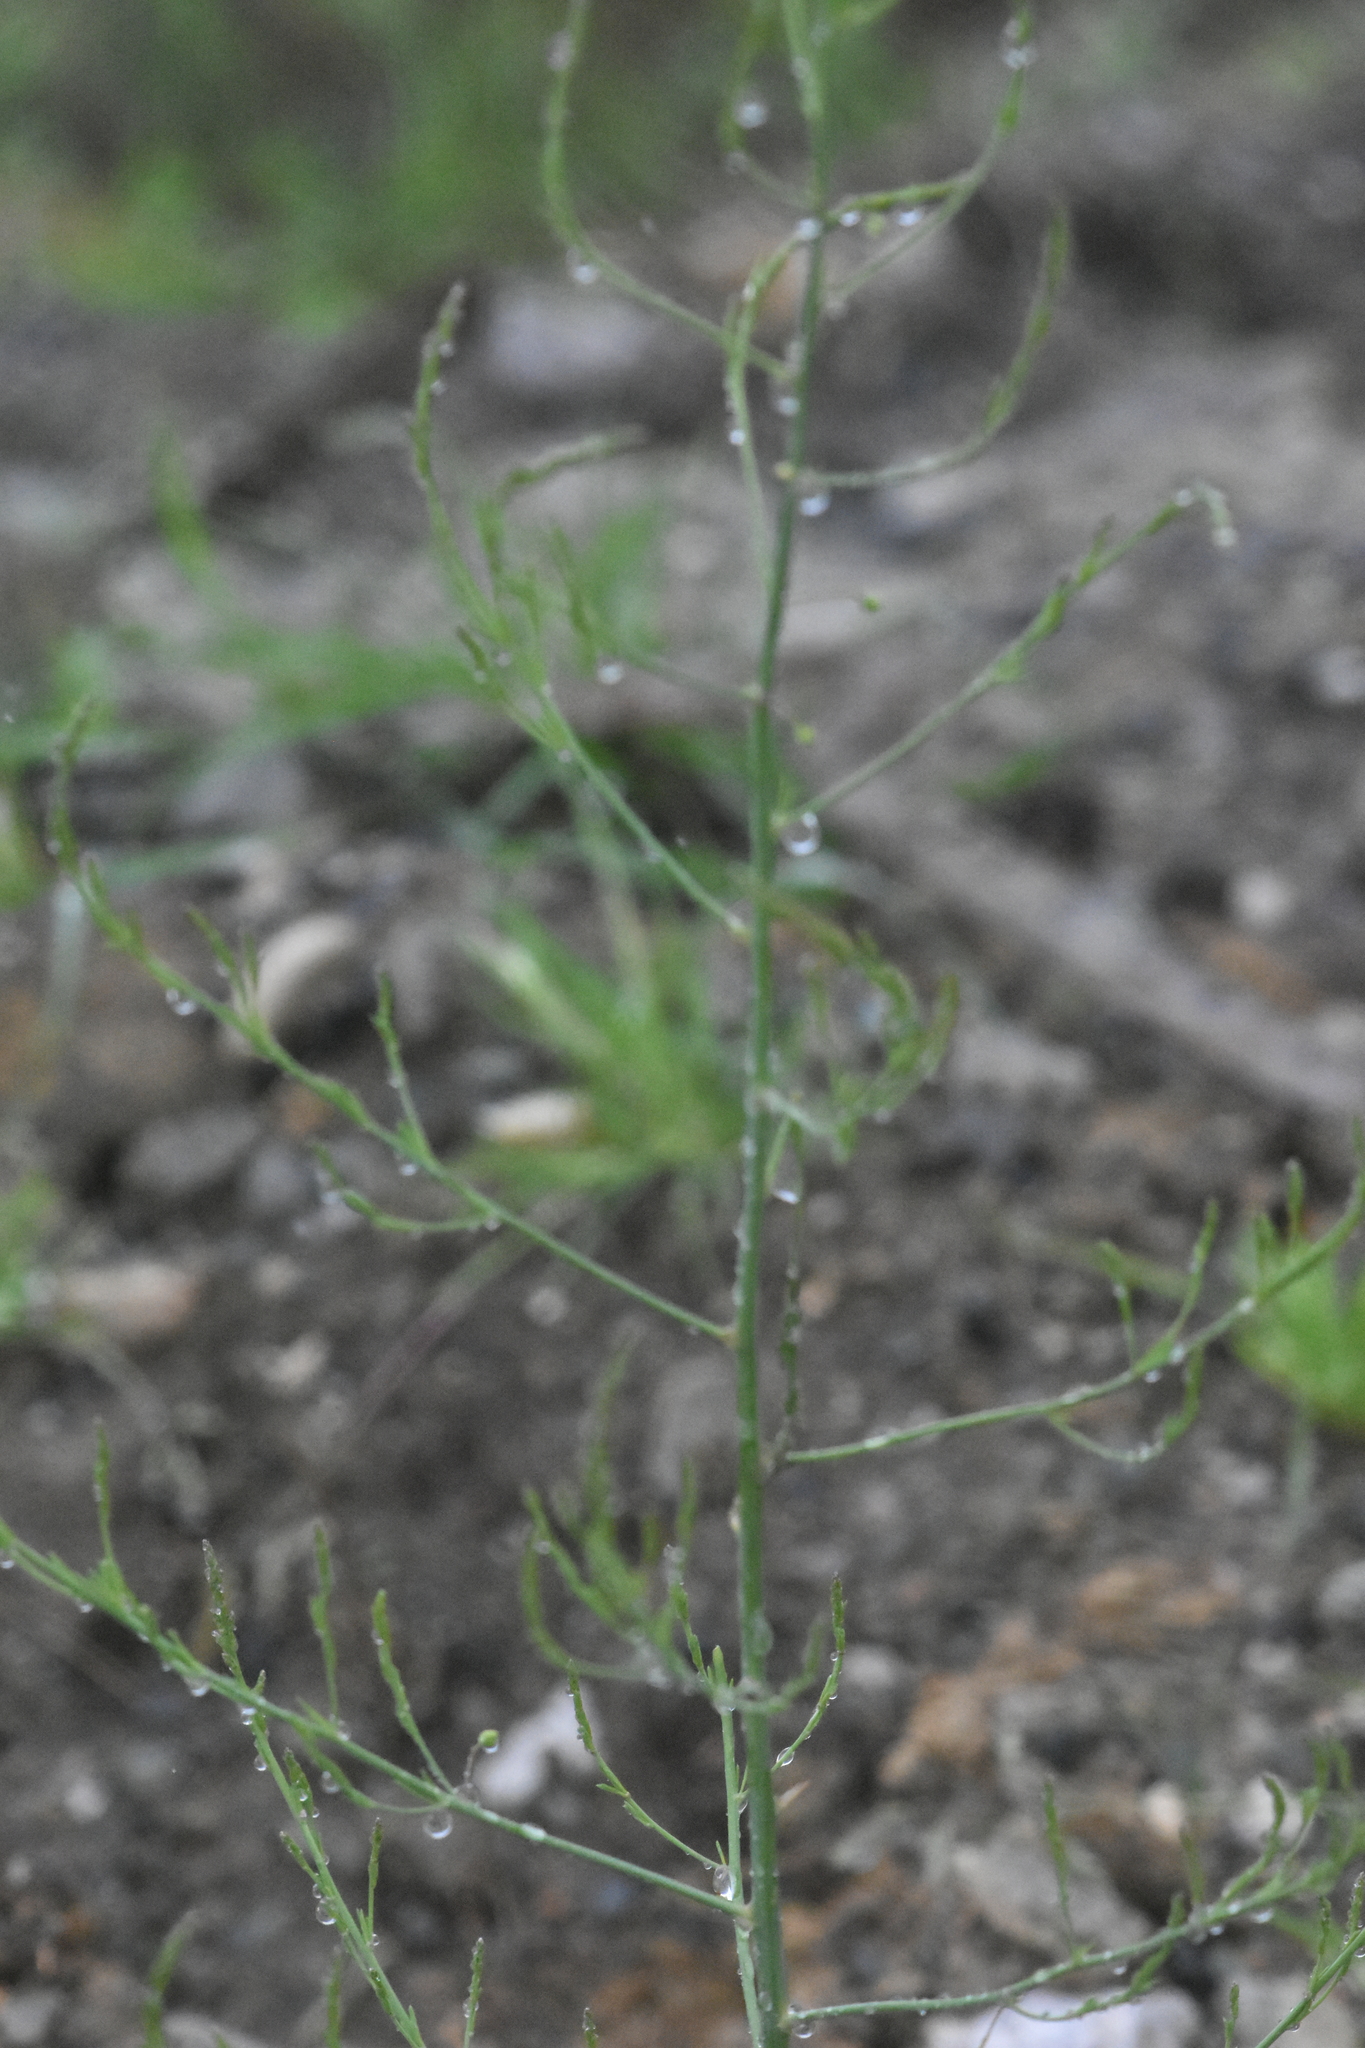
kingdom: Plantae
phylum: Tracheophyta
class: Liliopsida
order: Asparagales
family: Asparagaceae
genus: Asparagus
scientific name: Asparagus officinalis
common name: Garden asparagus
